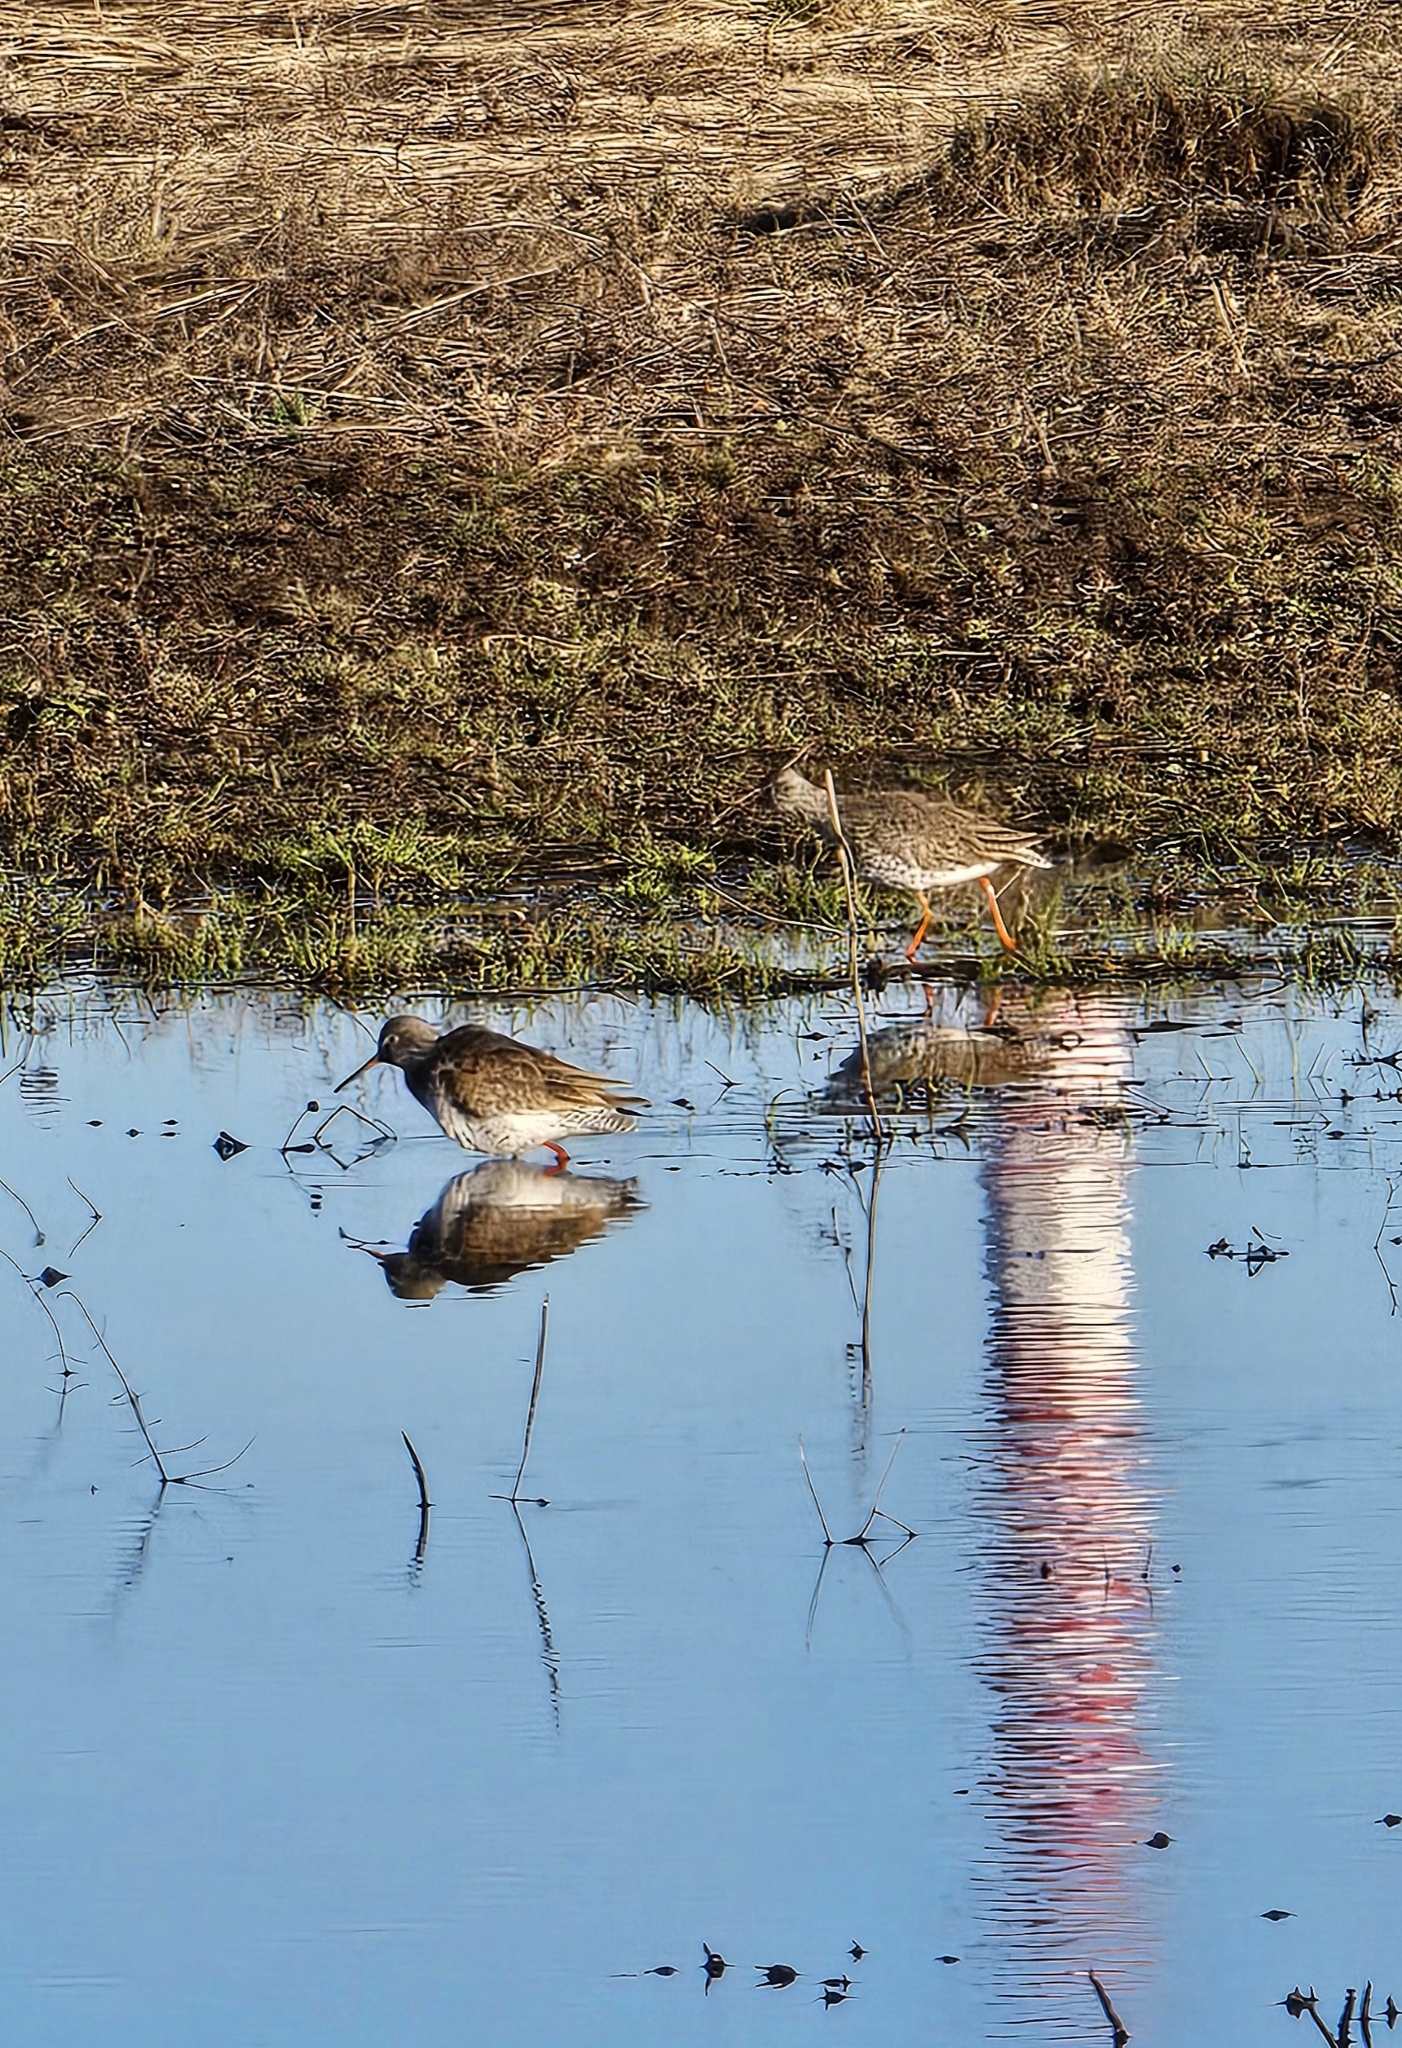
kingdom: Animalia
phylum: Chordata
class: Aves
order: Charadriiformes
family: Scolopacidae
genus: Tringa
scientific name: Tringa totanus
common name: Common redshank
